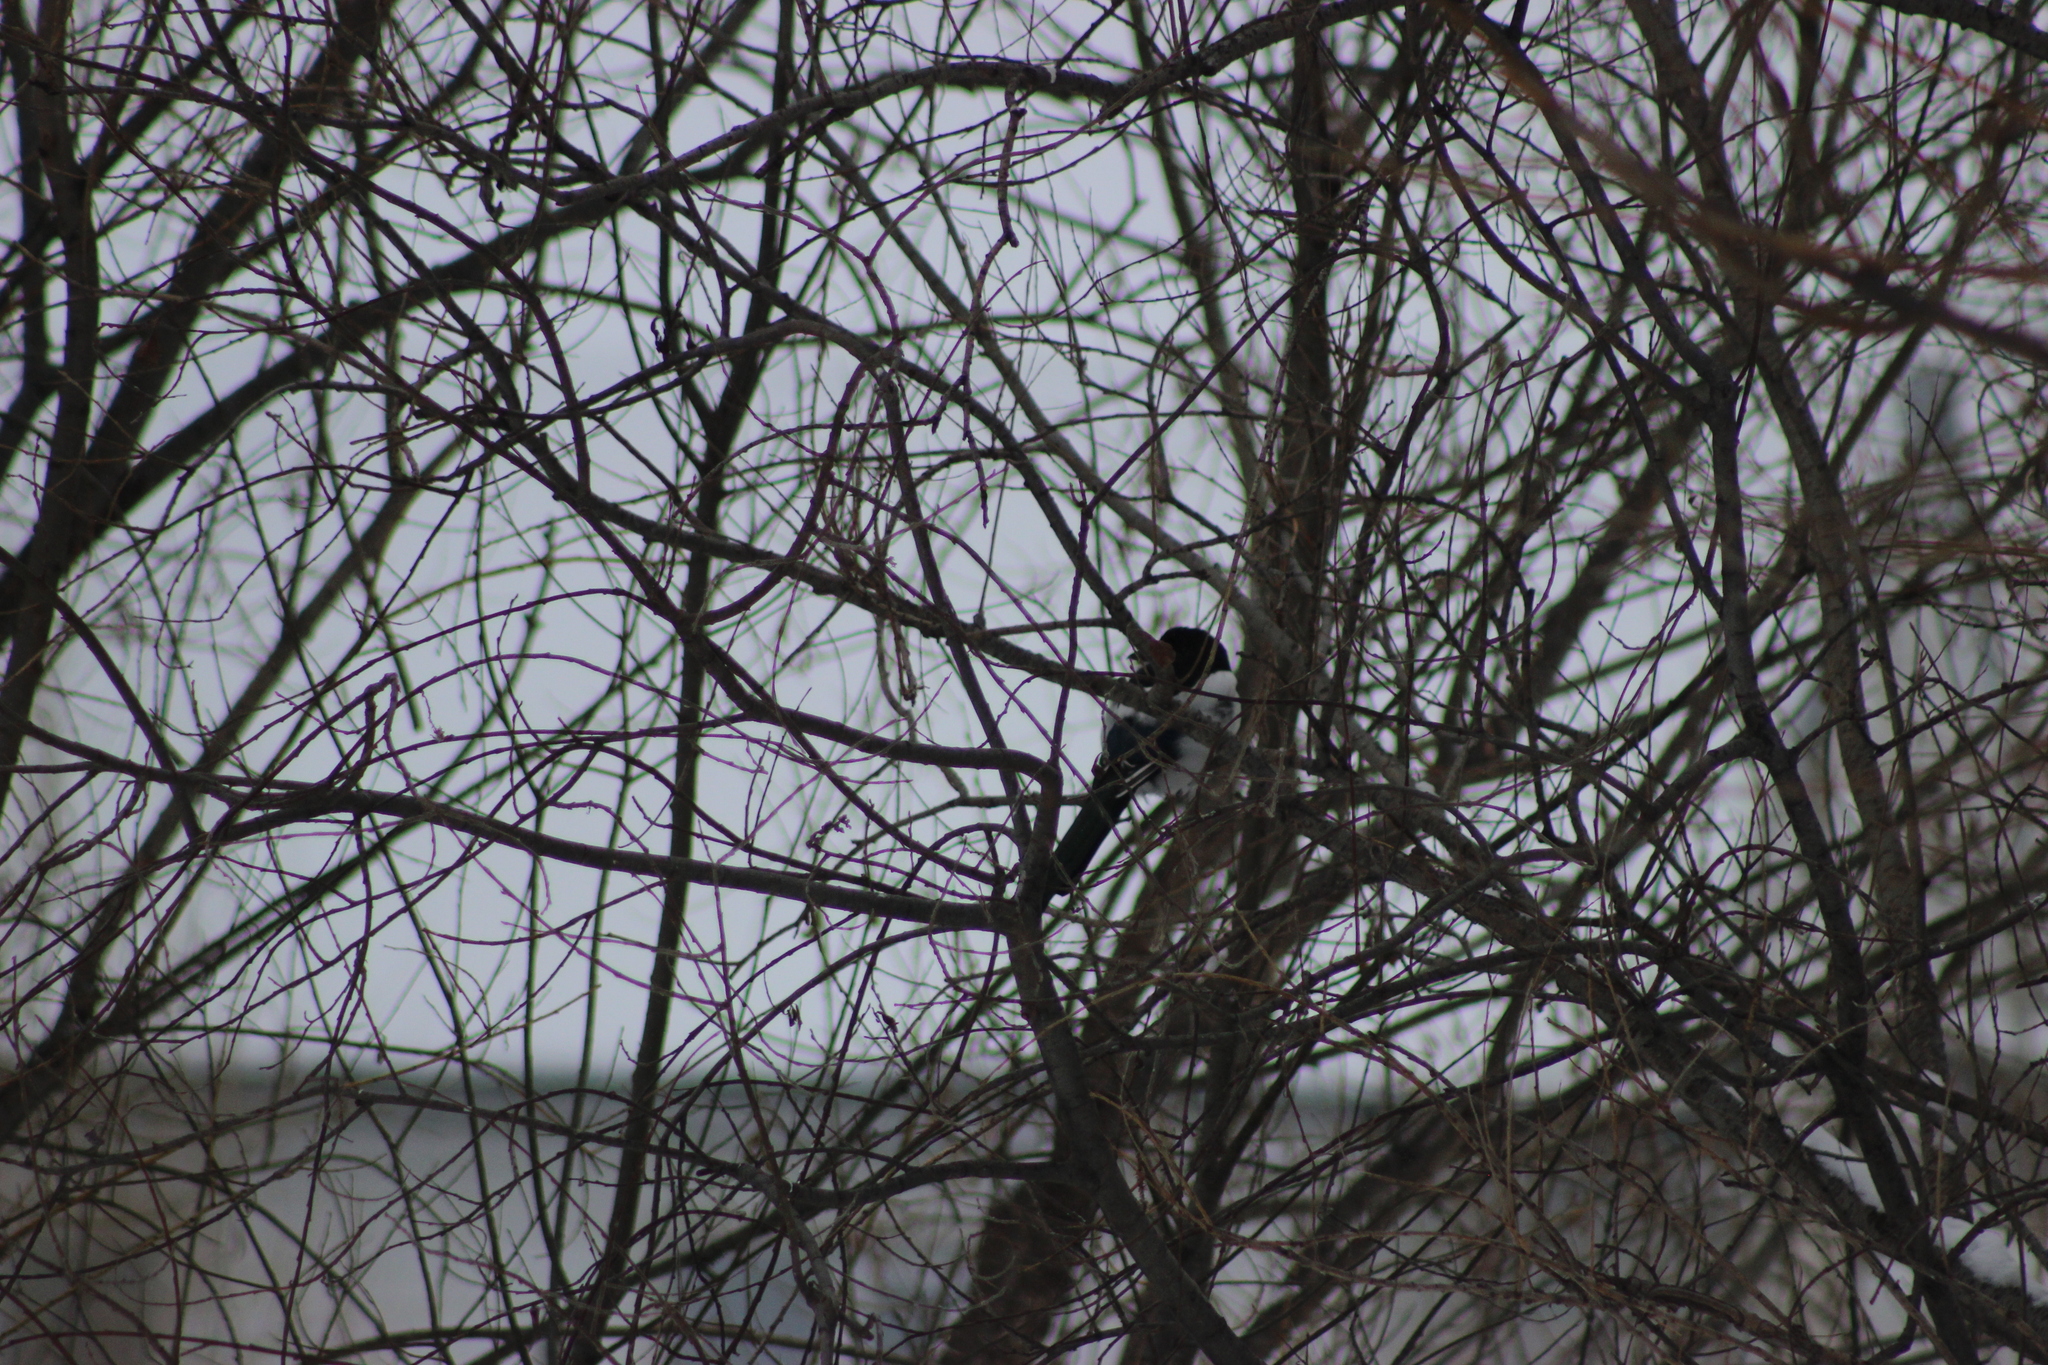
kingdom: Animalia
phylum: Chordata
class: Aves
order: Passeriformes
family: Corvidae
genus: Pica
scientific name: Pica pica
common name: Eurasian magpie
